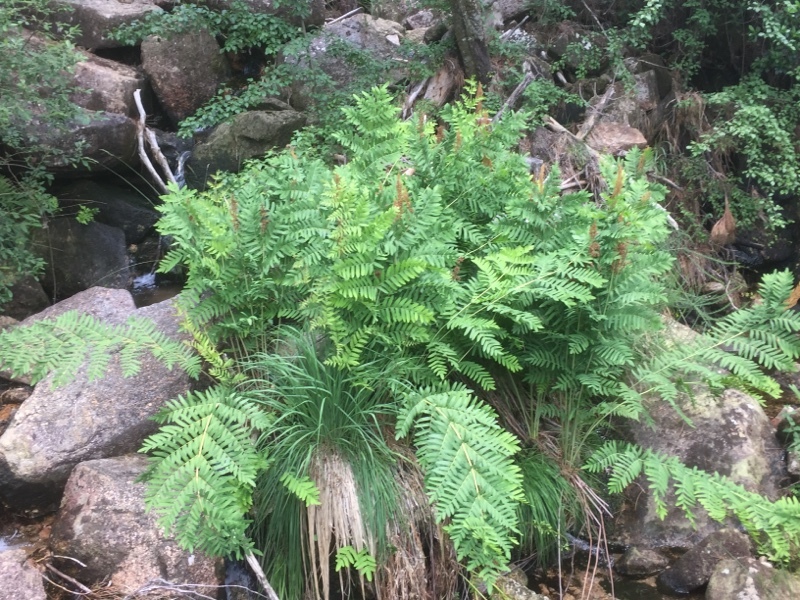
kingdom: Plantae
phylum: Tracheophyta
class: Polypodiopsida
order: Osmundales
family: Osmundaceae
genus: Osmunda
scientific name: Osmunda regalis
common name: Royal fern
